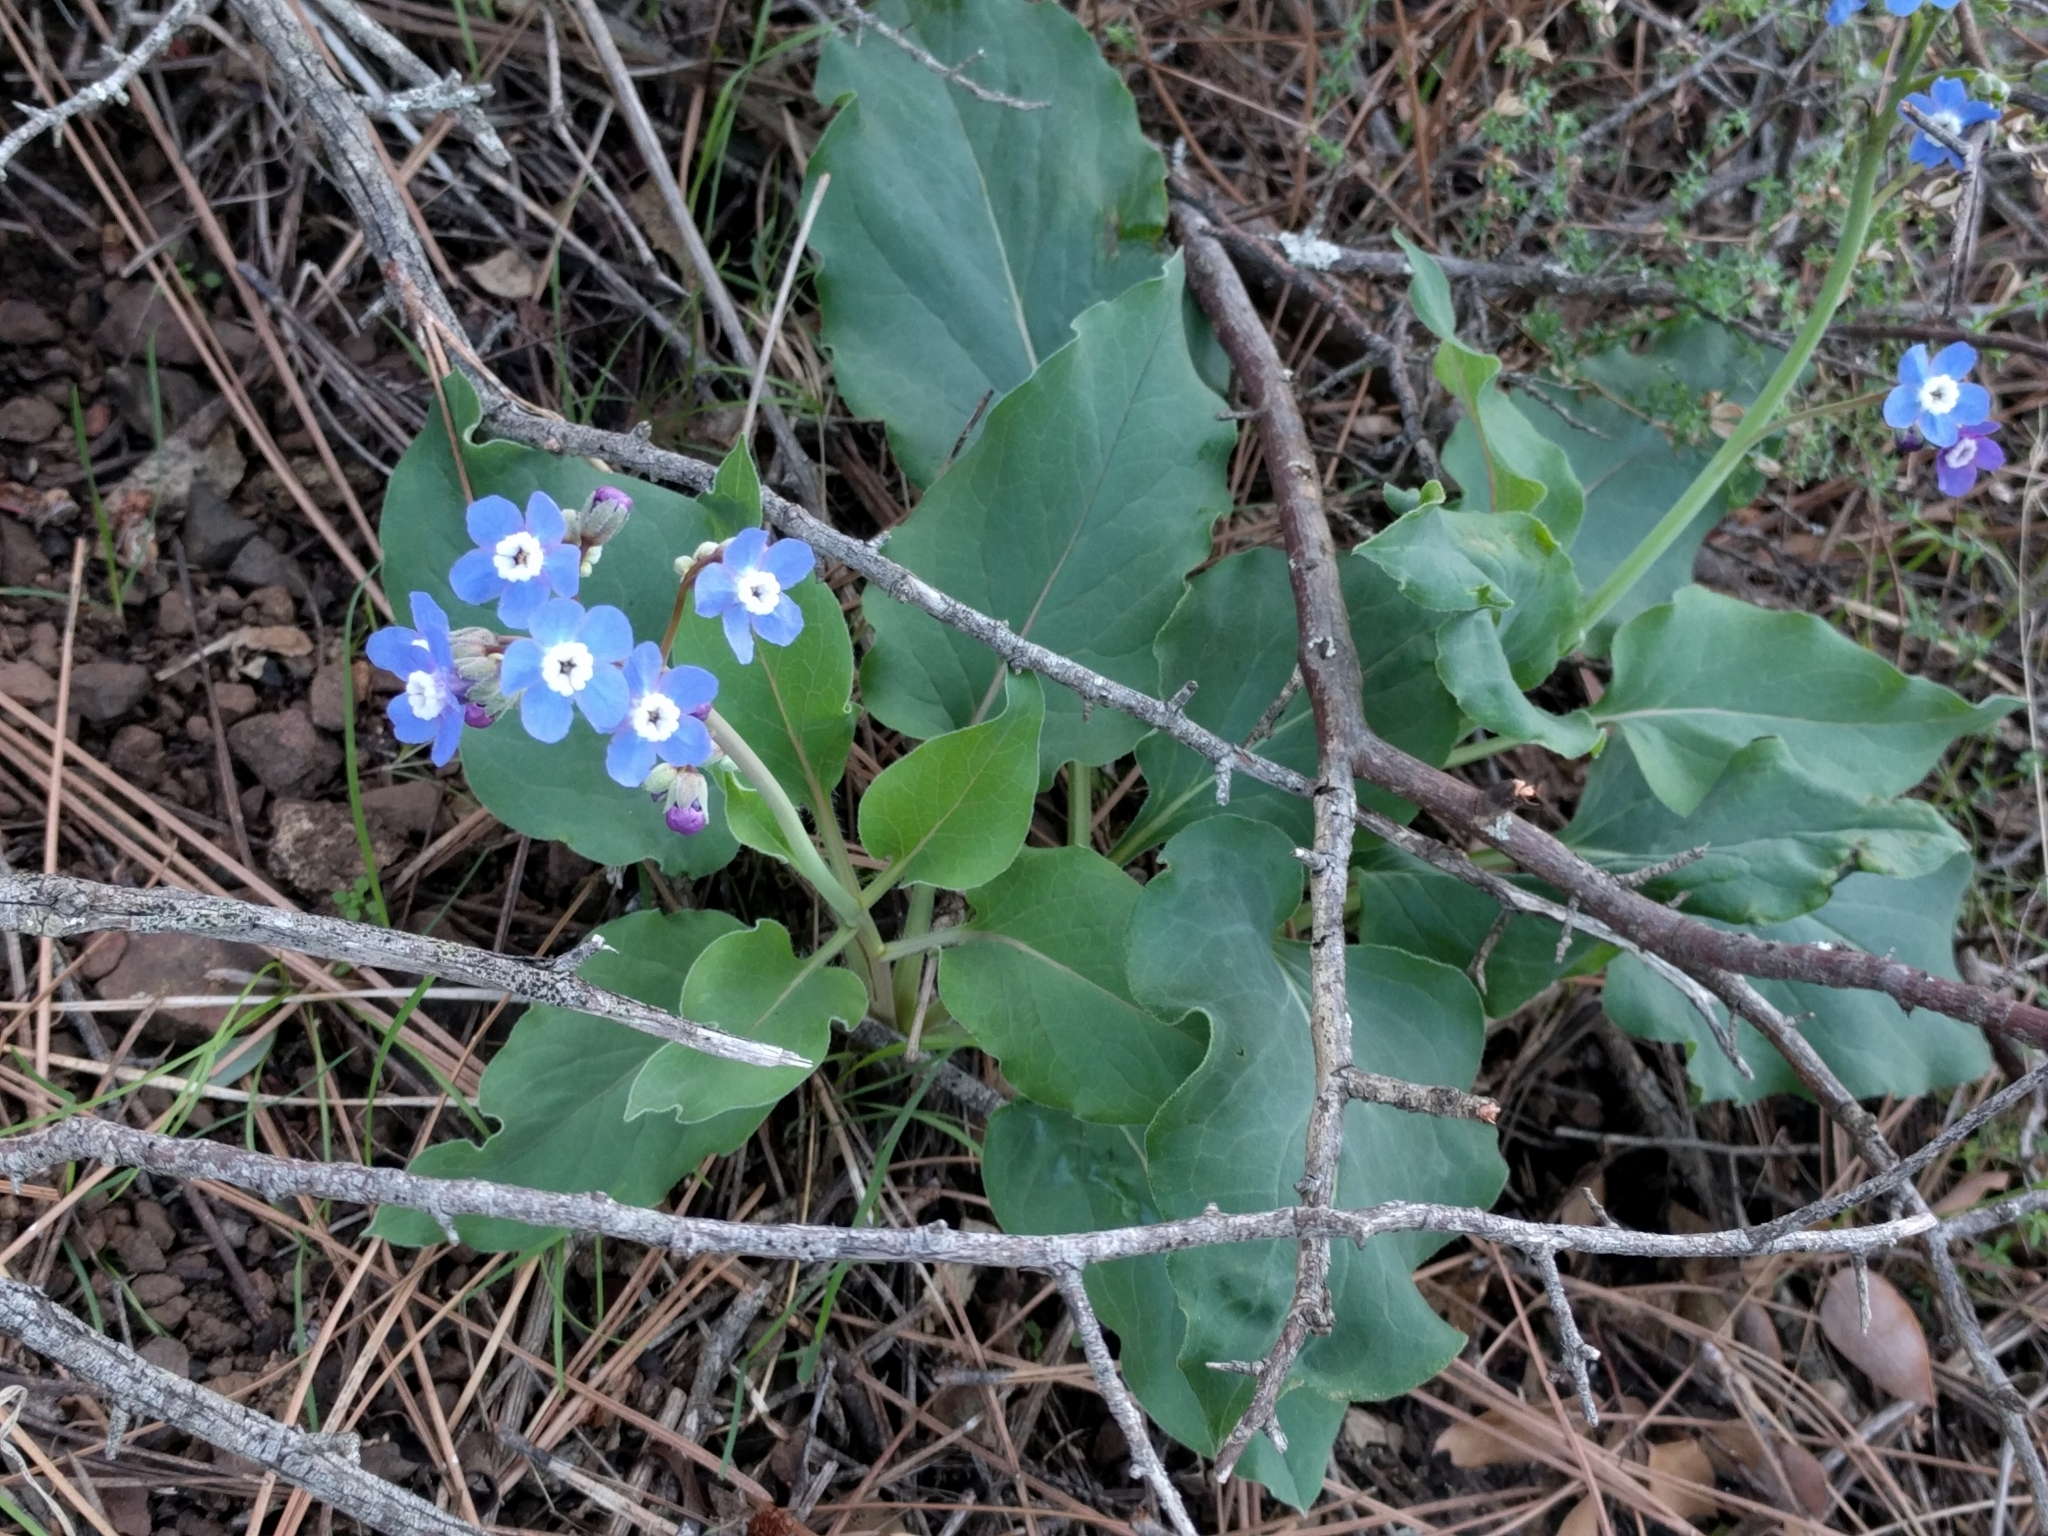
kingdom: Plantae
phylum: Tracheophyta
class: Magnoliopsida
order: Boraginales
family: Boraginaceae
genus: Adelinia
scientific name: Adelinia grande
